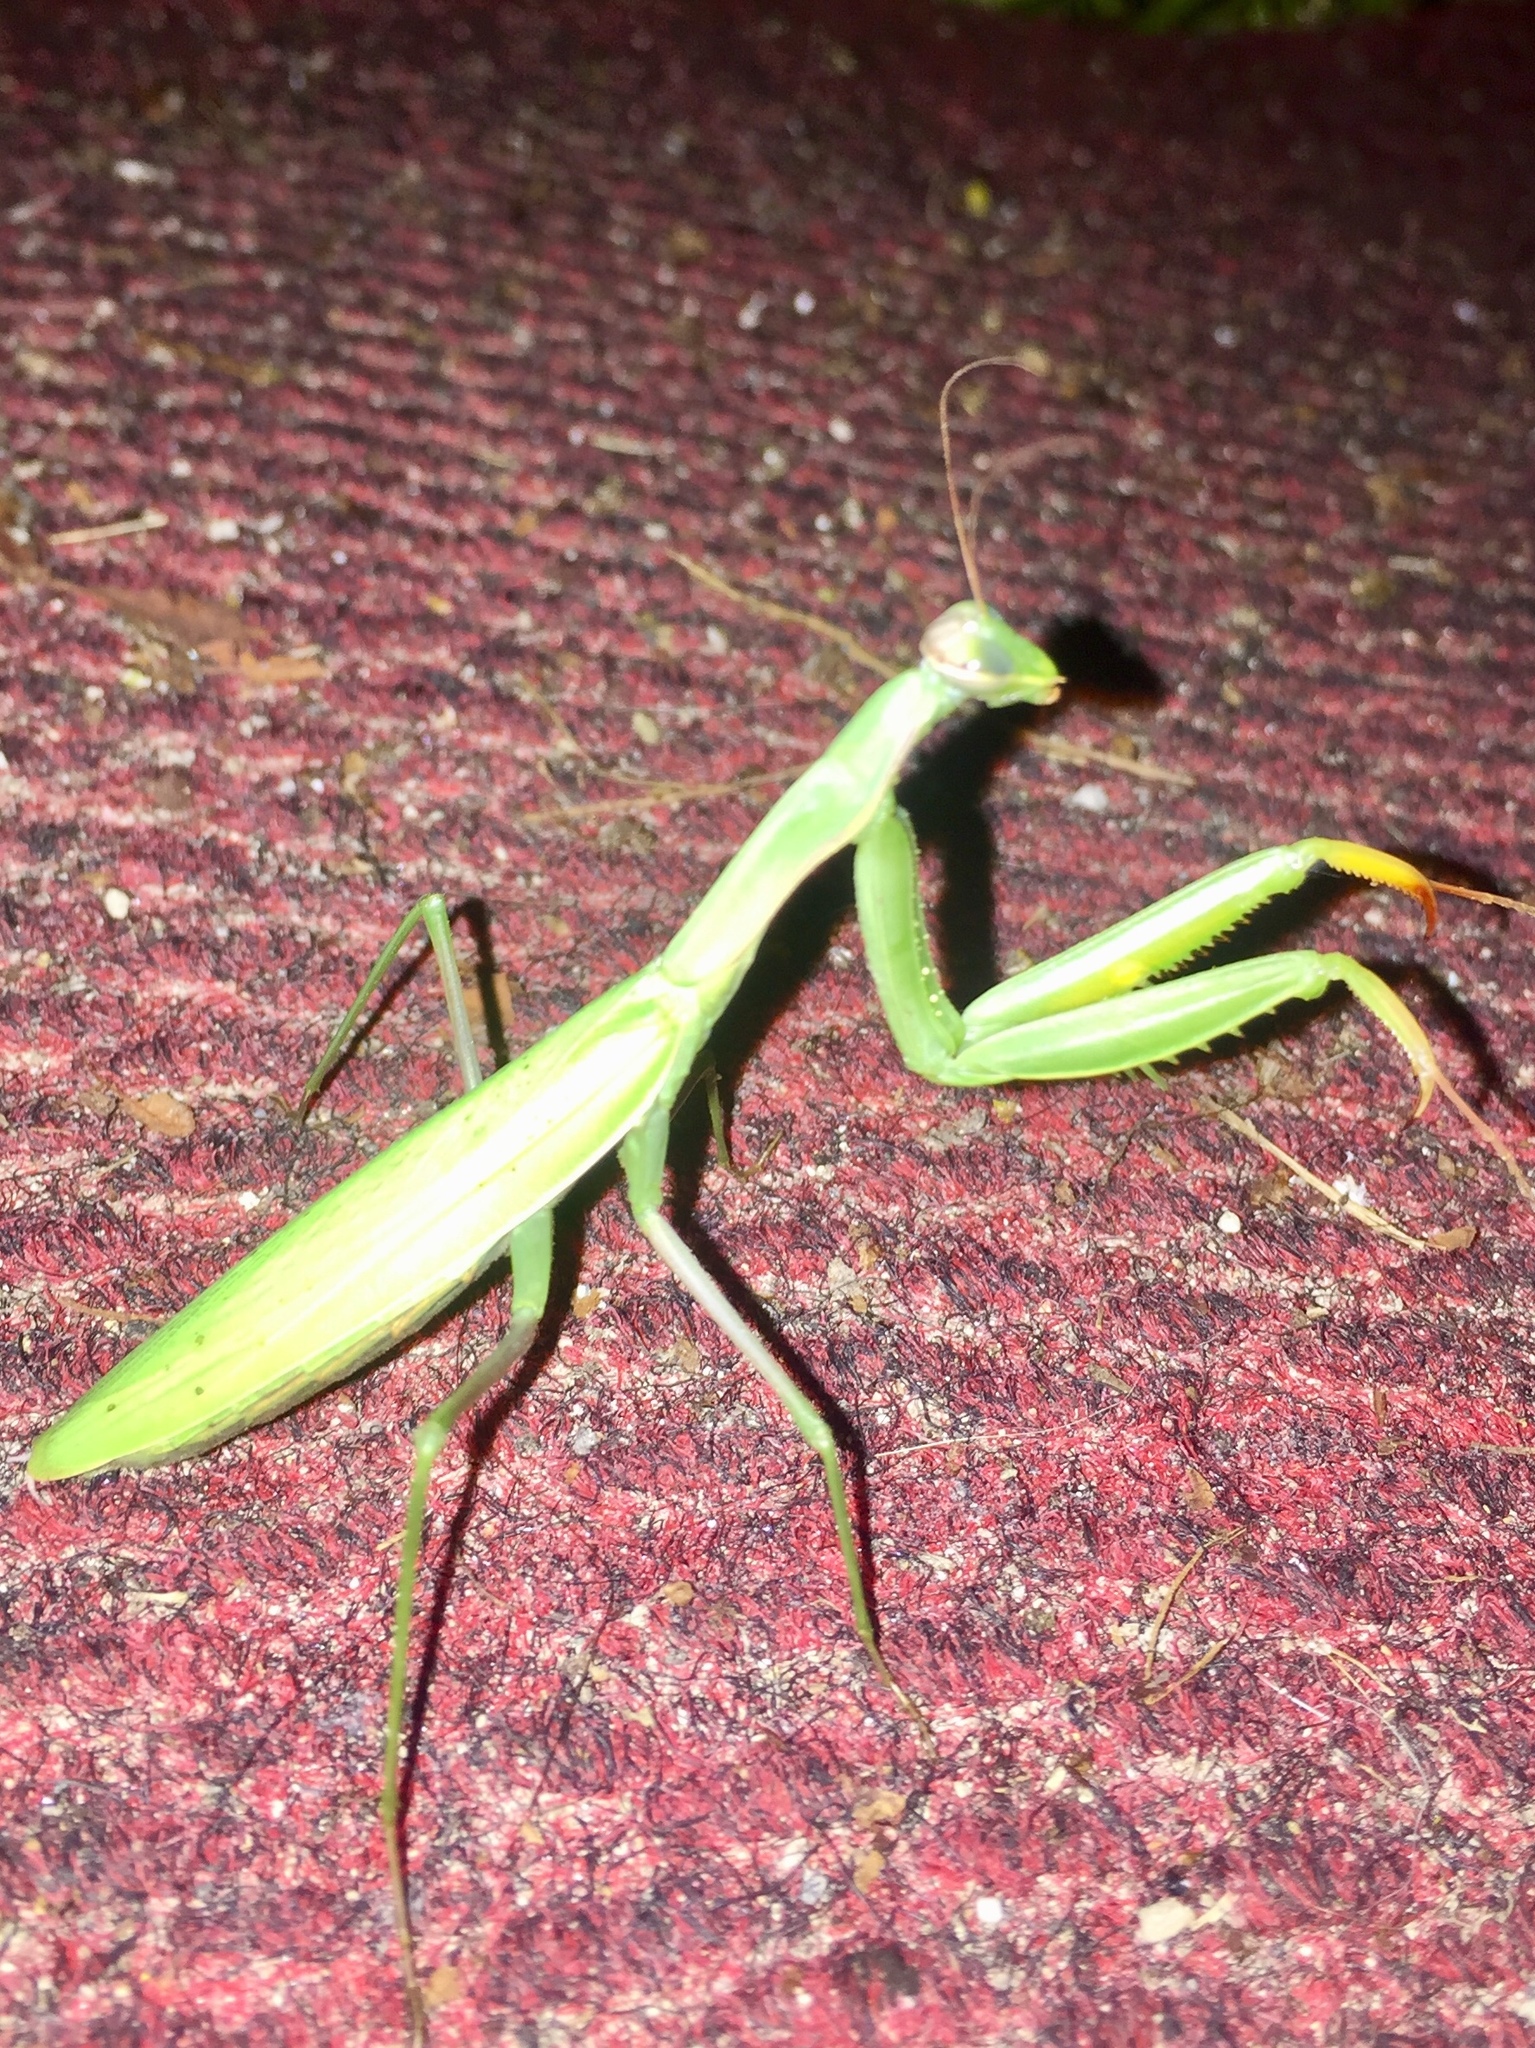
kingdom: Animalia
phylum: Arthropoda
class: Insecta
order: Mantodea
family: Mantidae
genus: Mantis
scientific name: Mantis religiosa
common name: Praying mantis
